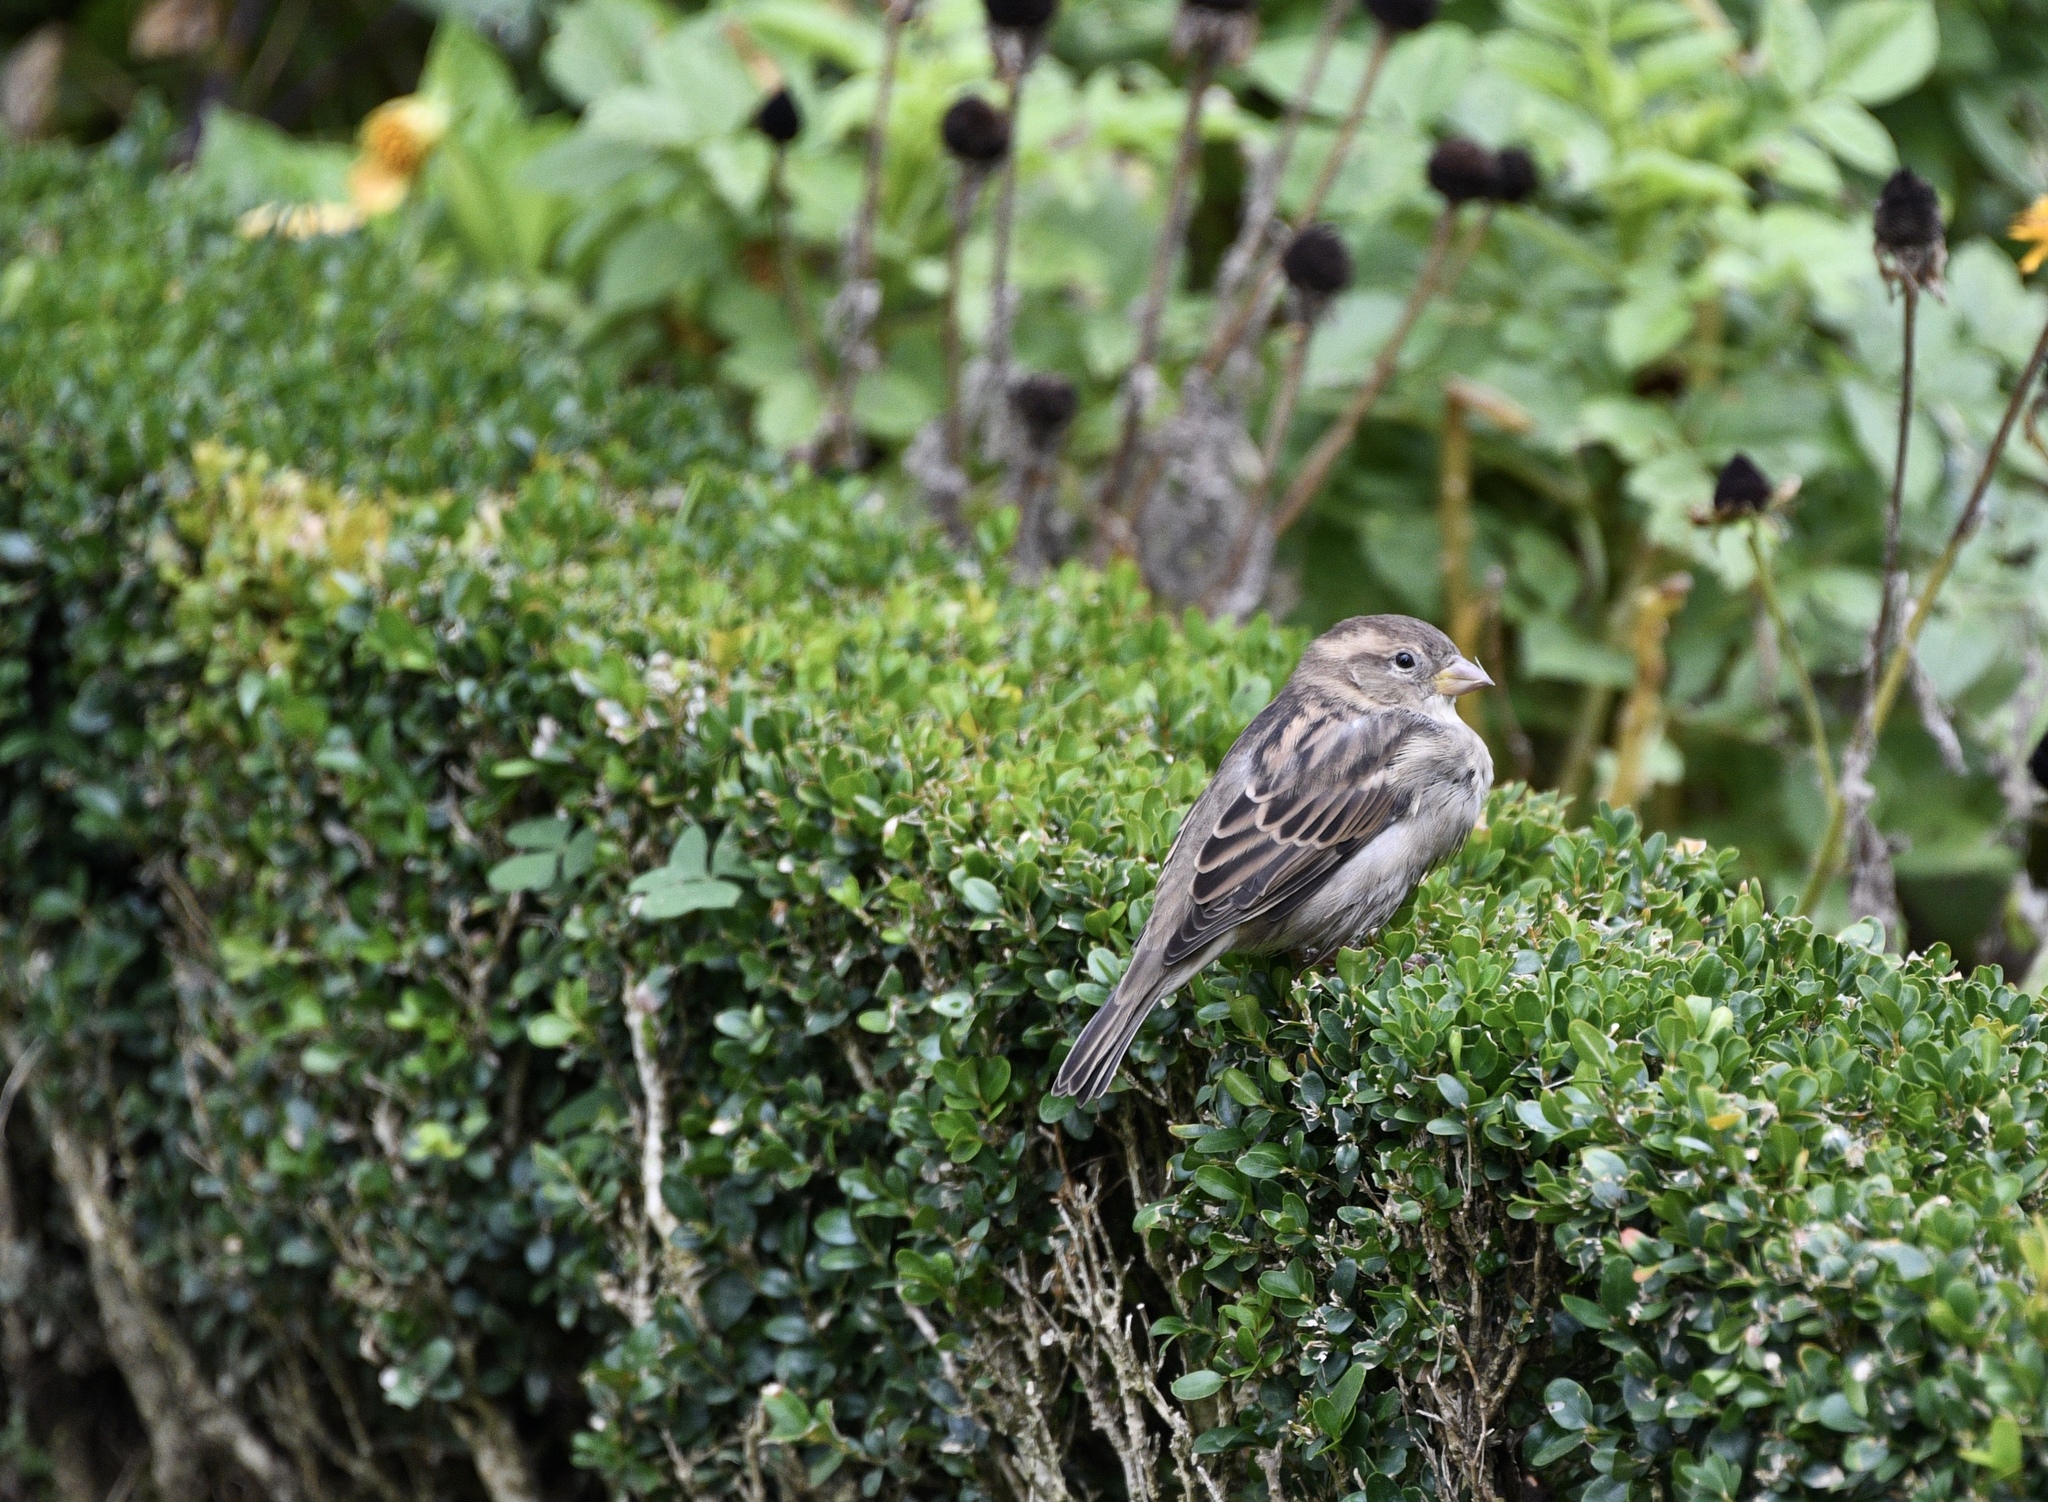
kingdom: Animalia
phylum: Chordata
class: Aves
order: Passeriformes
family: Passeridae
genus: Passer
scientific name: Passer domesticus
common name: House sparrow
